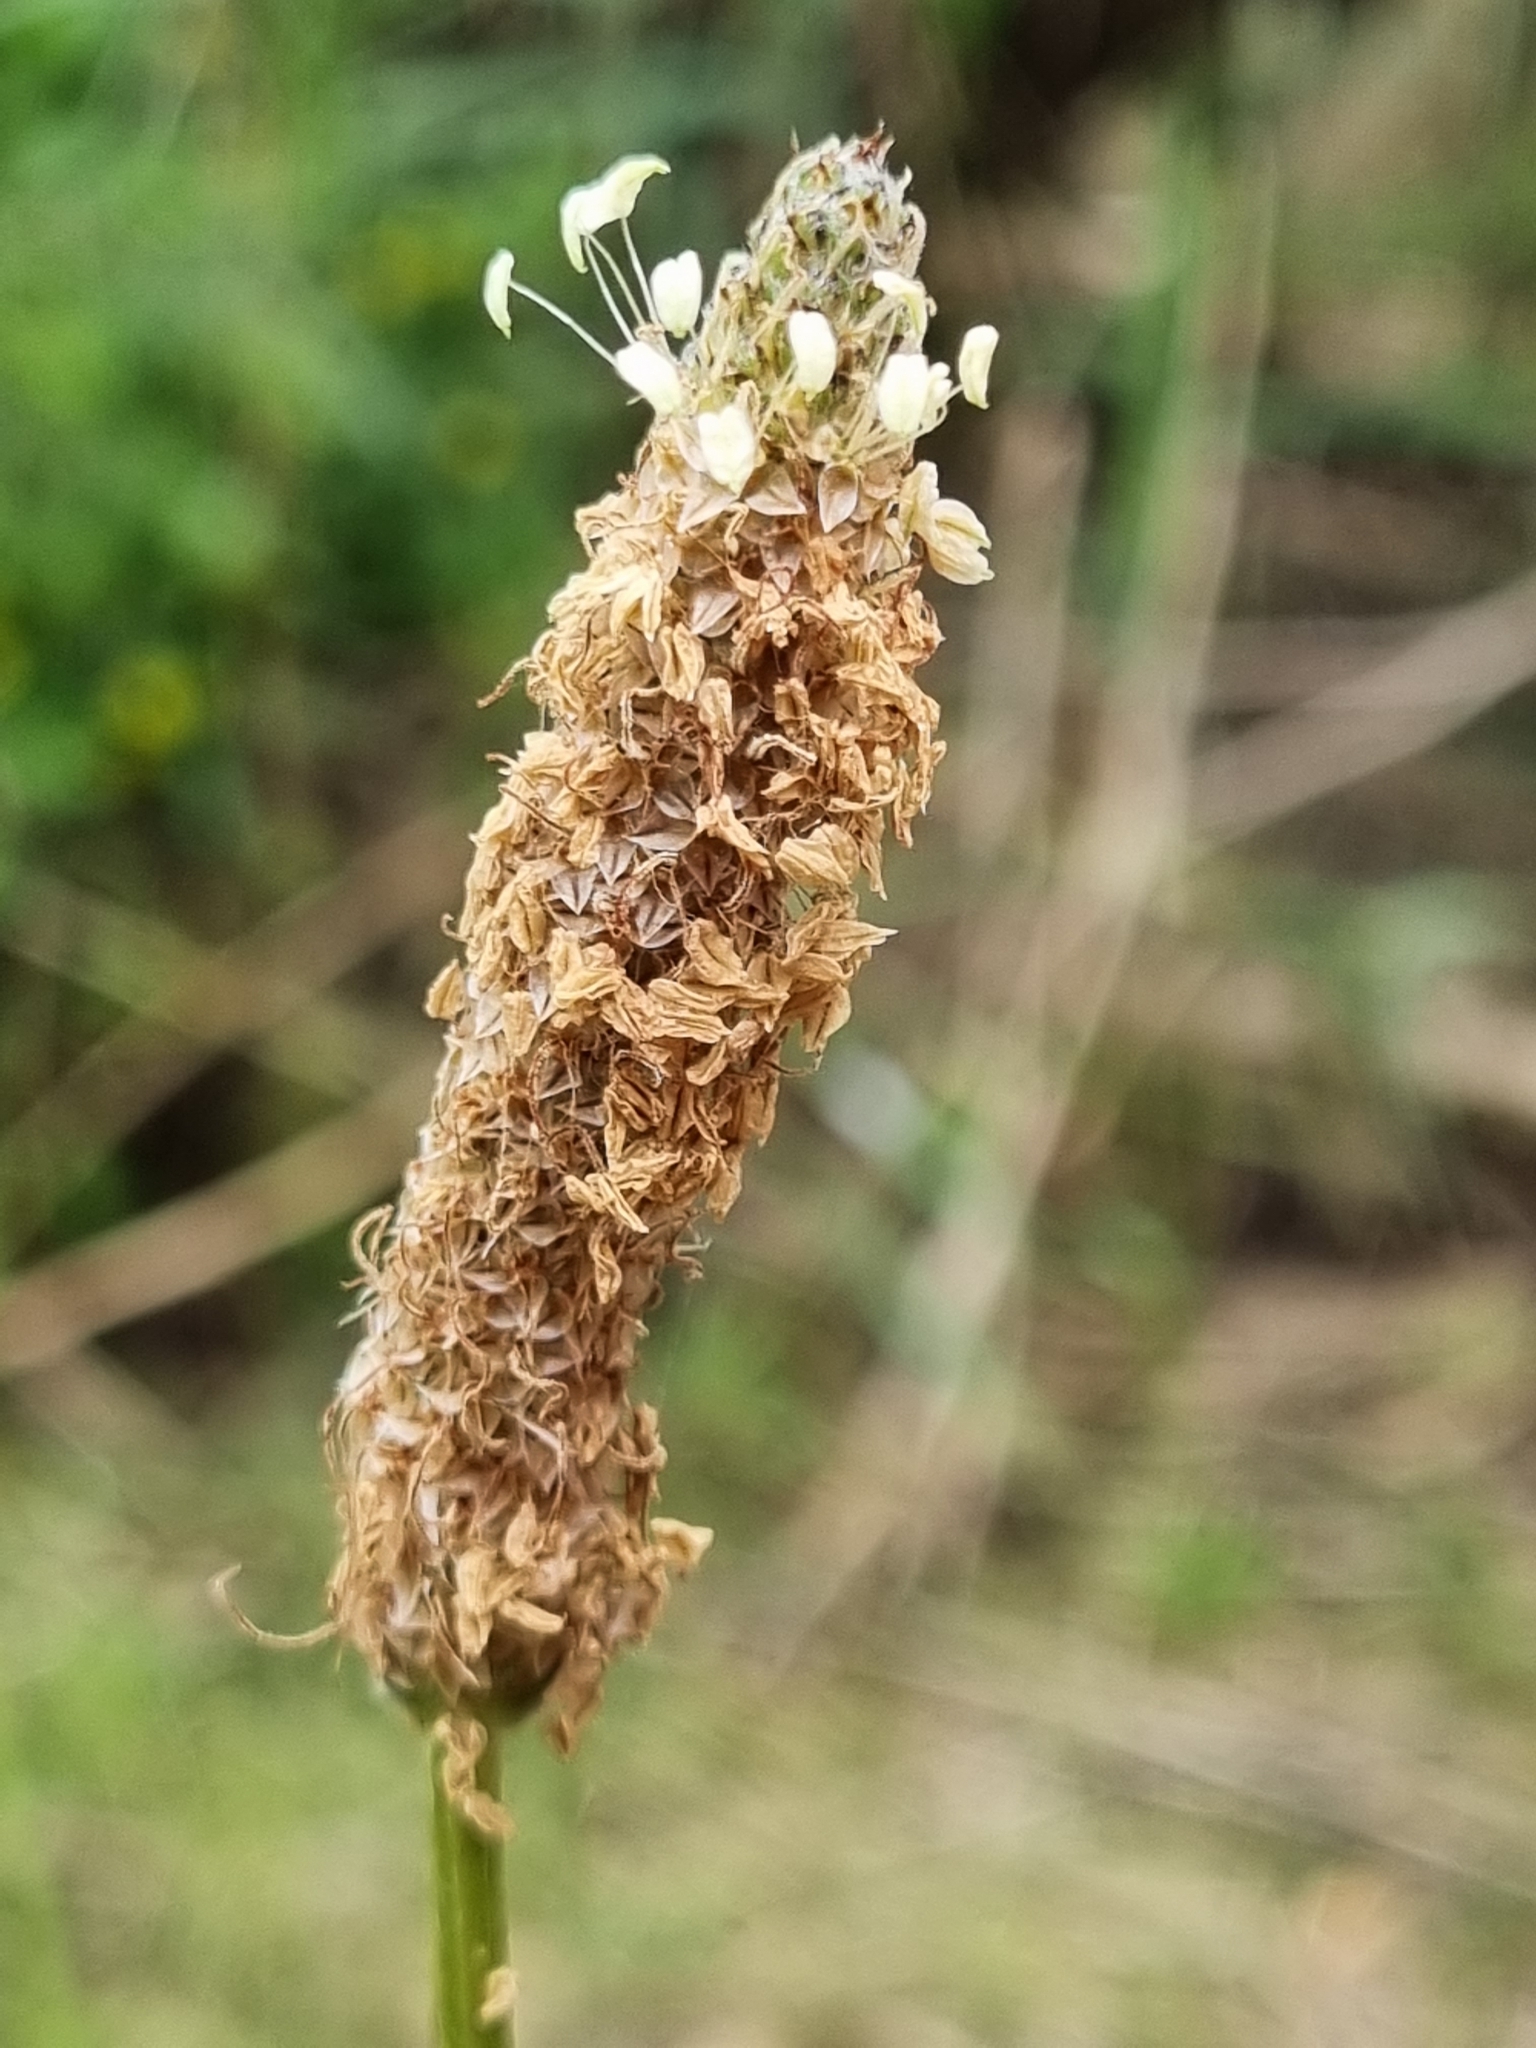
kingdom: Plantae
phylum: Tracheophyta
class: Magnoliopsida
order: Lamiales
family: Plantaginaceae
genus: Plantago
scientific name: Plantago lanceolata
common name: Ribwort plantain
